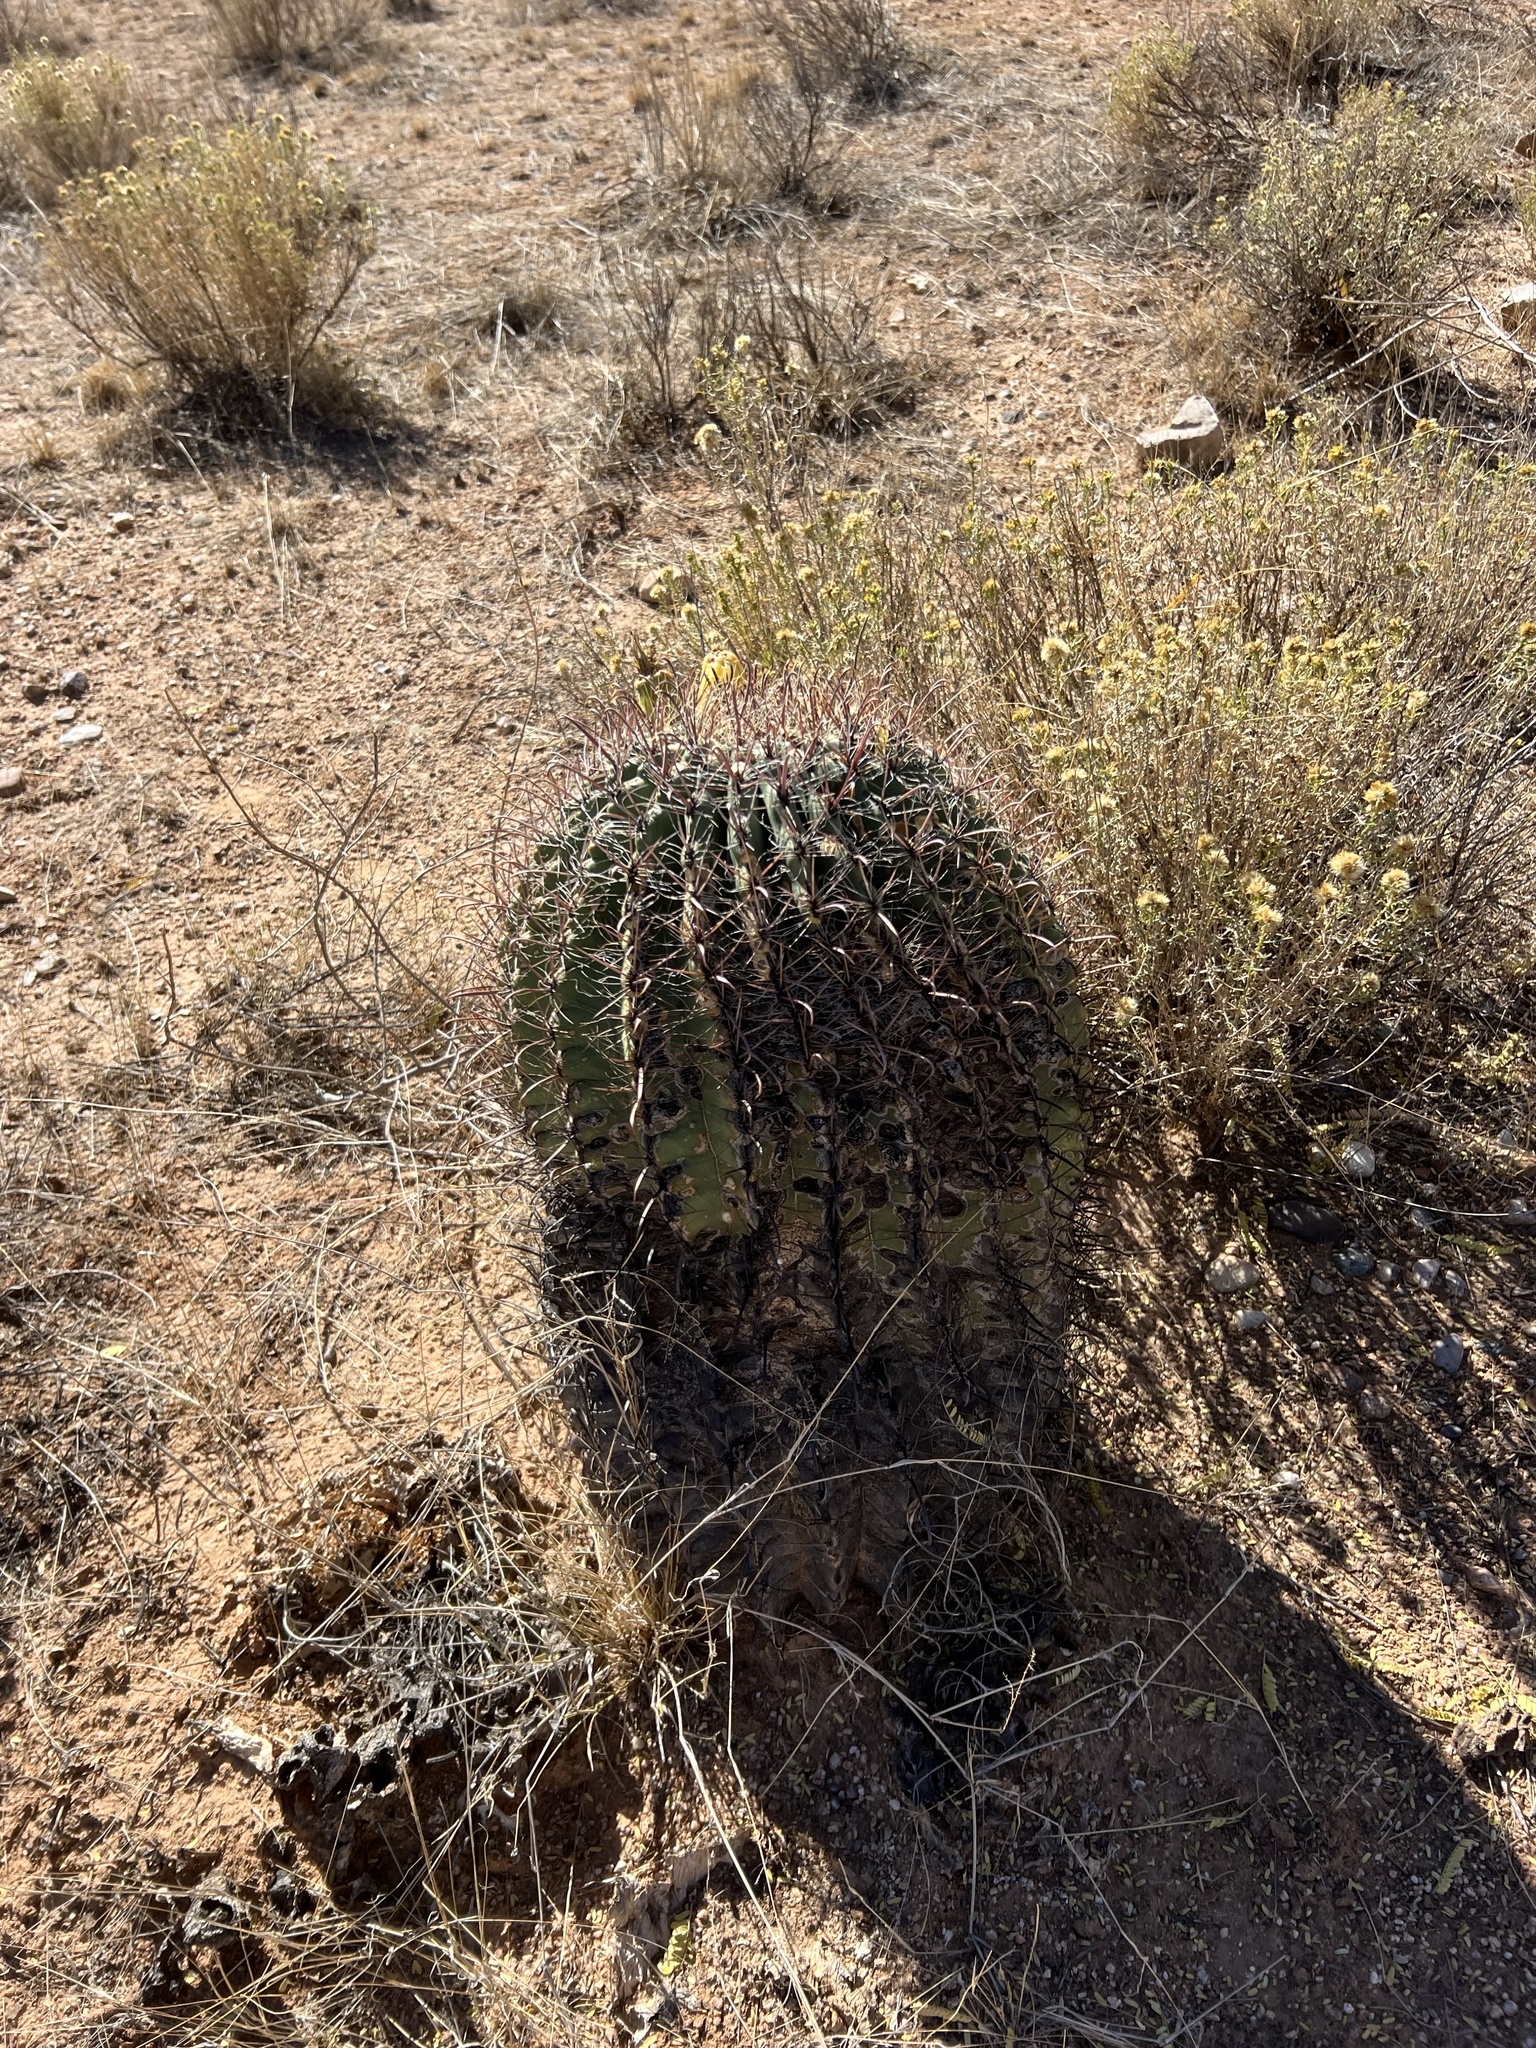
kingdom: Plantae
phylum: Tracheophyta
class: Magnoliopsida
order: Caryophyllales
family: Cactaceae
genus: Ferocactus
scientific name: Ferocactus wislizeni
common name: Candy barrel cactus
